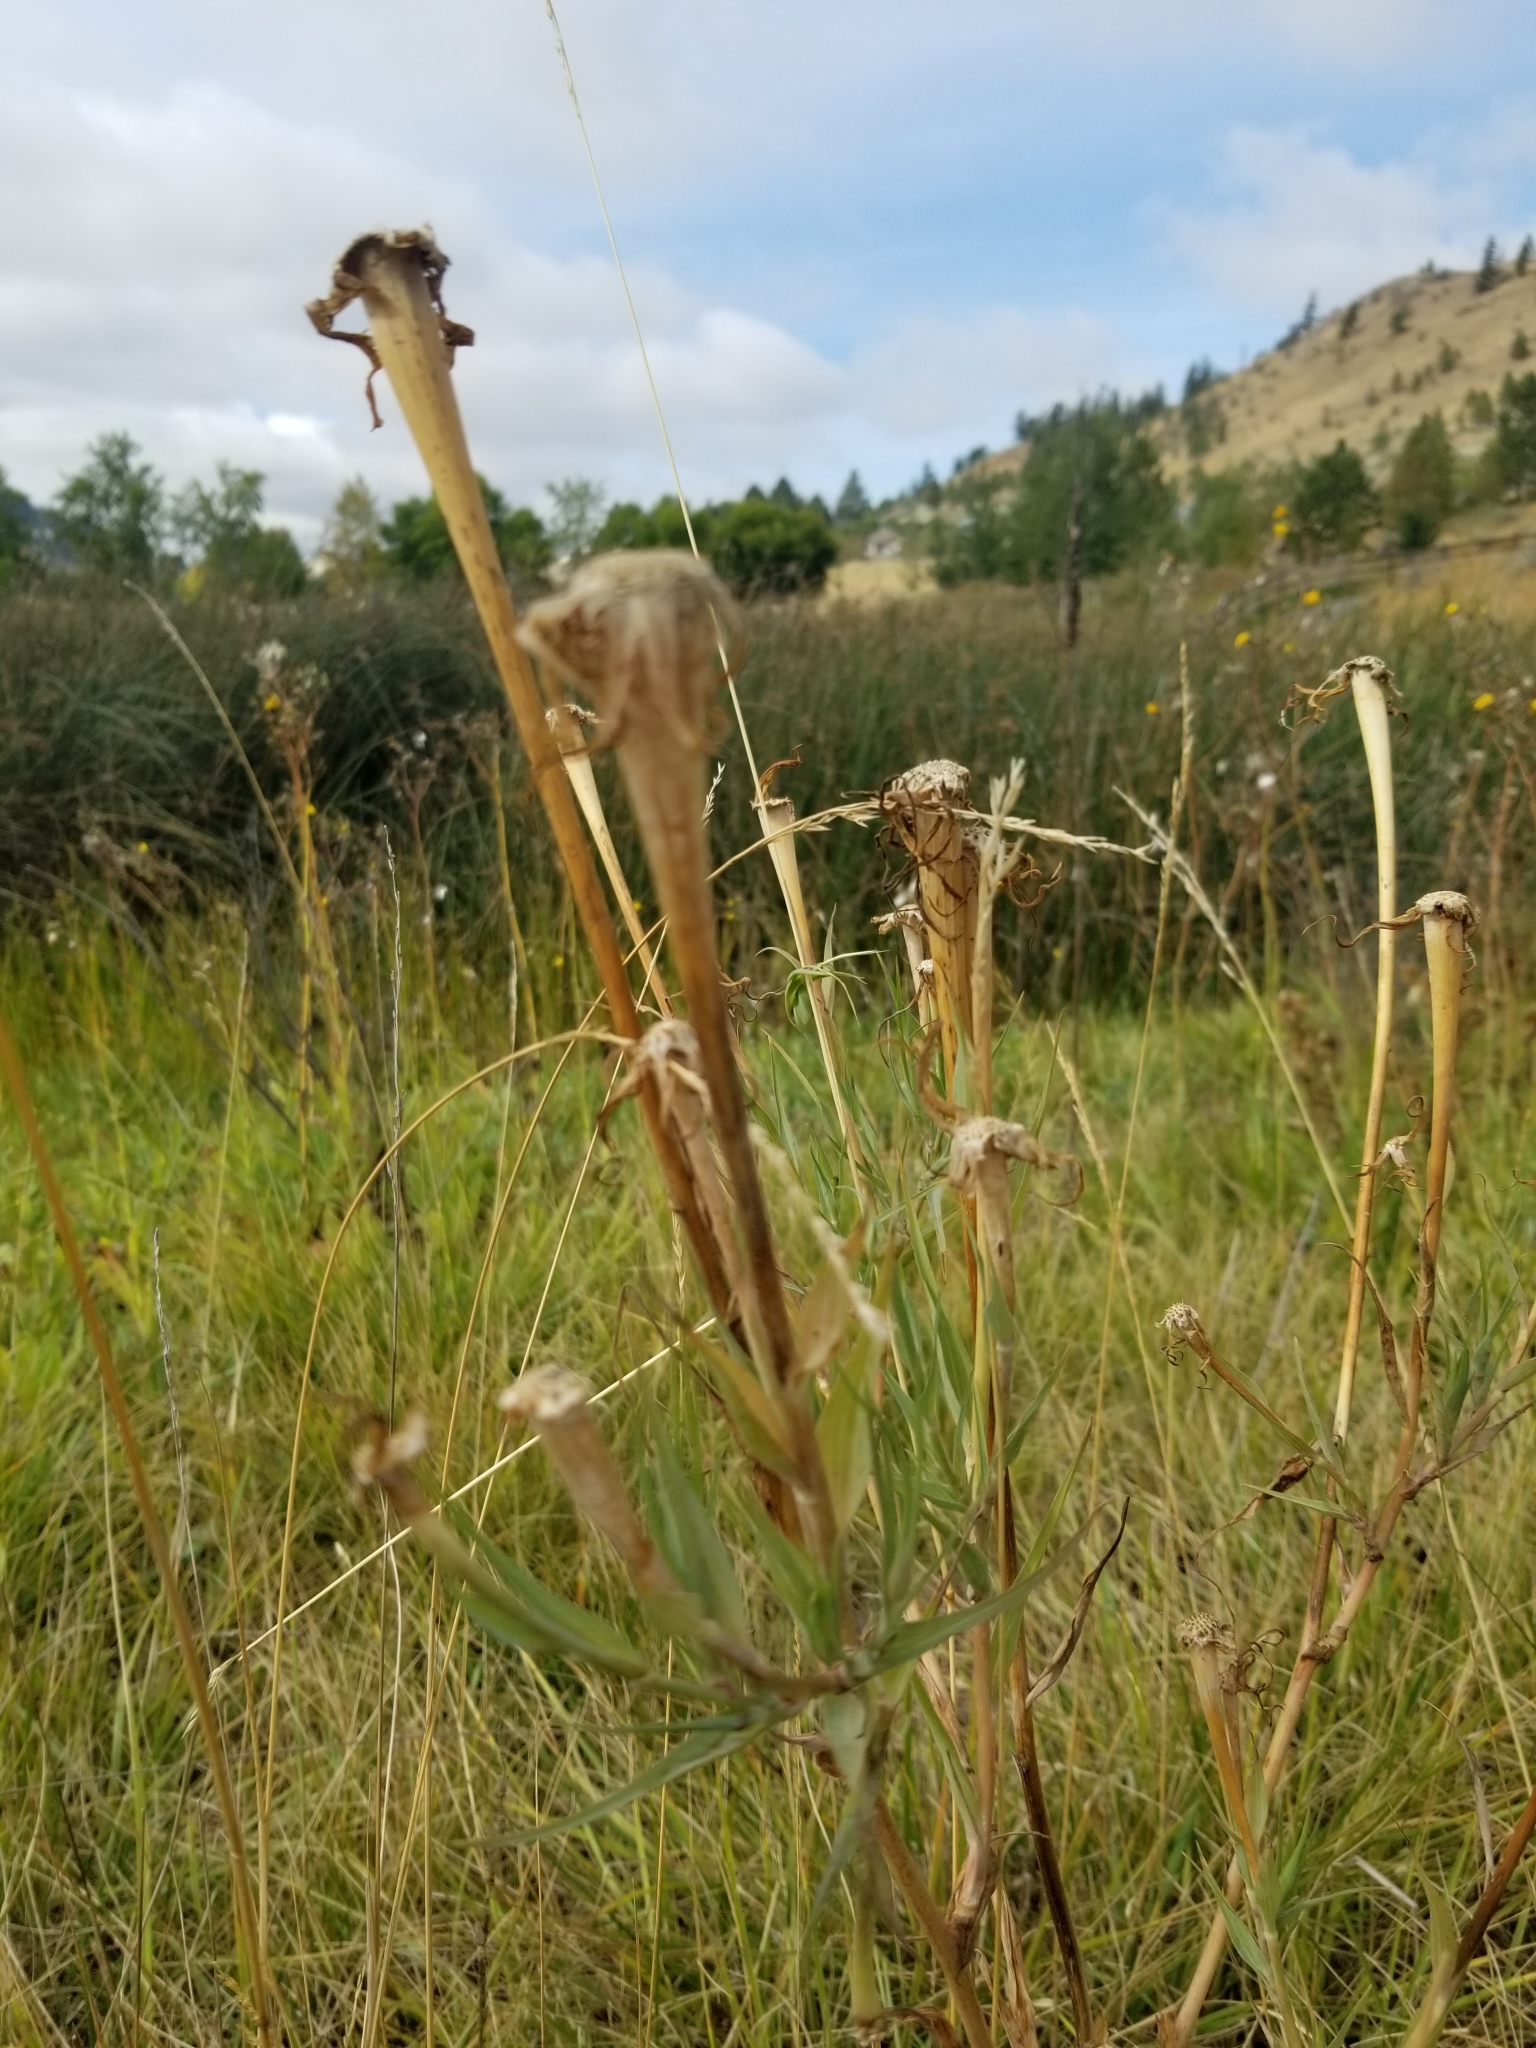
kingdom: Plantae
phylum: Tracheophyta
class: Magnoliopsida
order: Asterales
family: Asteraceae
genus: Tragopogon
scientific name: Tragopogon dubius
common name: Yellow salsify
